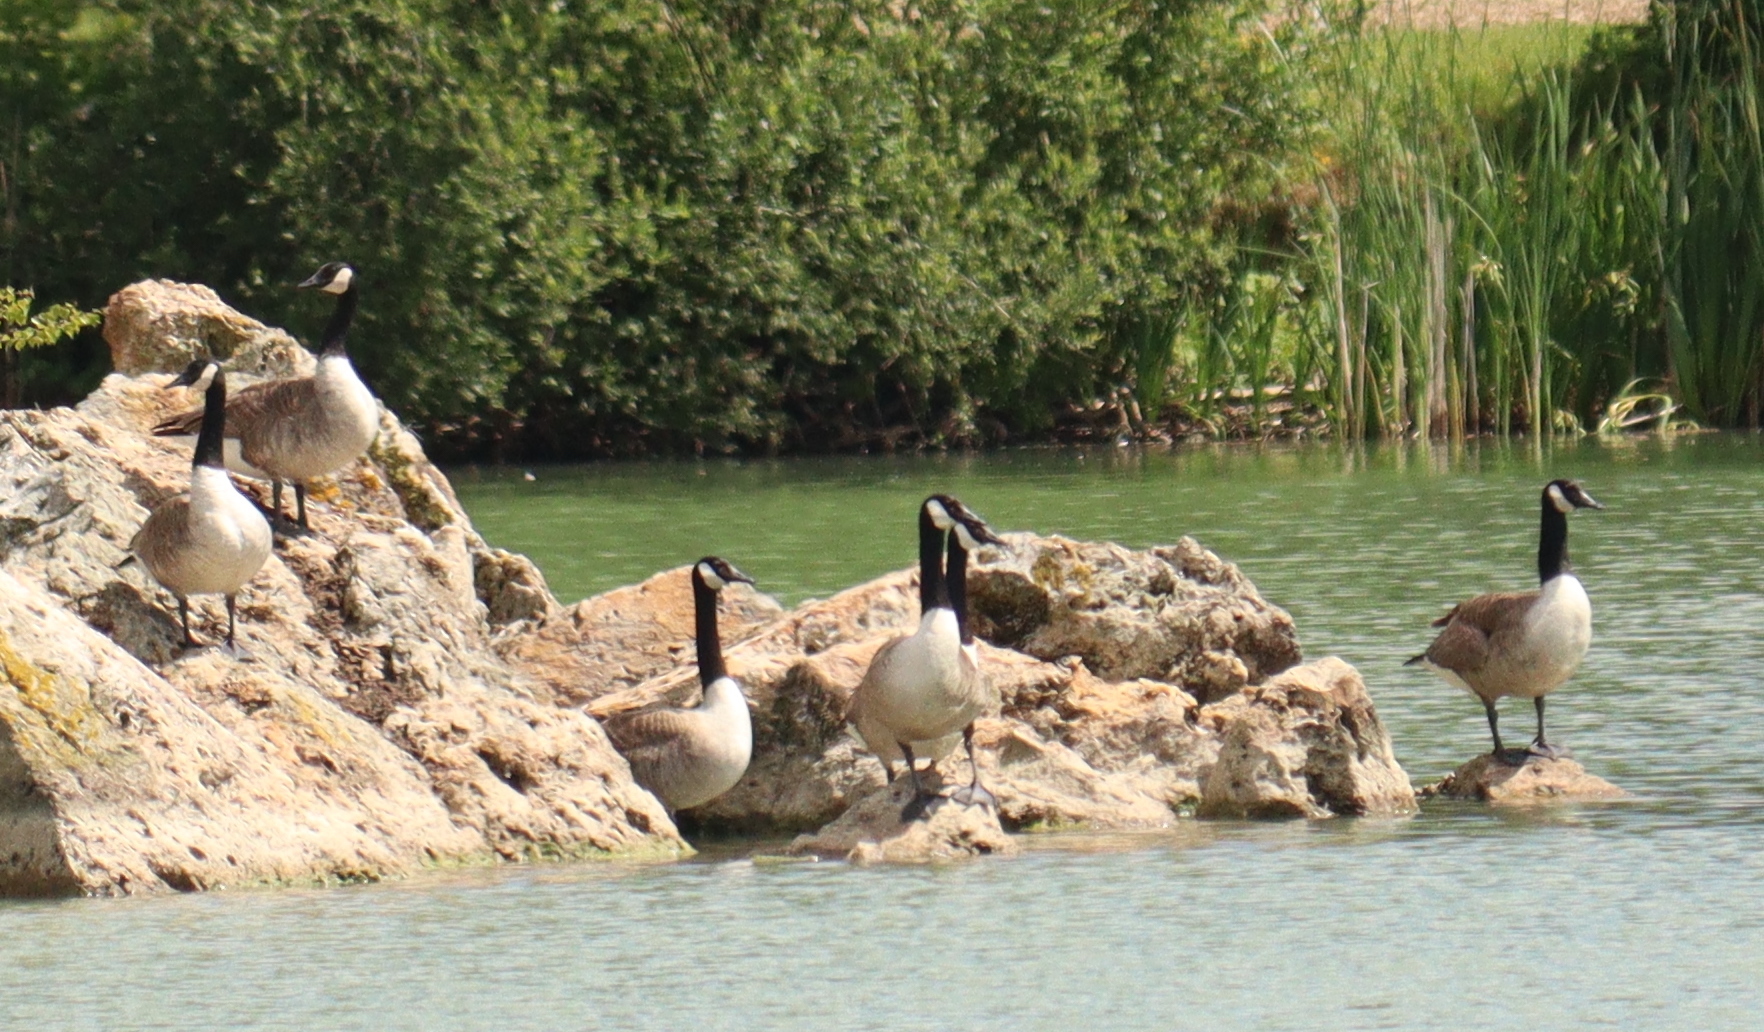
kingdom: Animalia
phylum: Chordata
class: Aves
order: Anseriformes
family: Anatidae
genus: Branta
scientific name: Branta canadensis
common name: Canada goose
